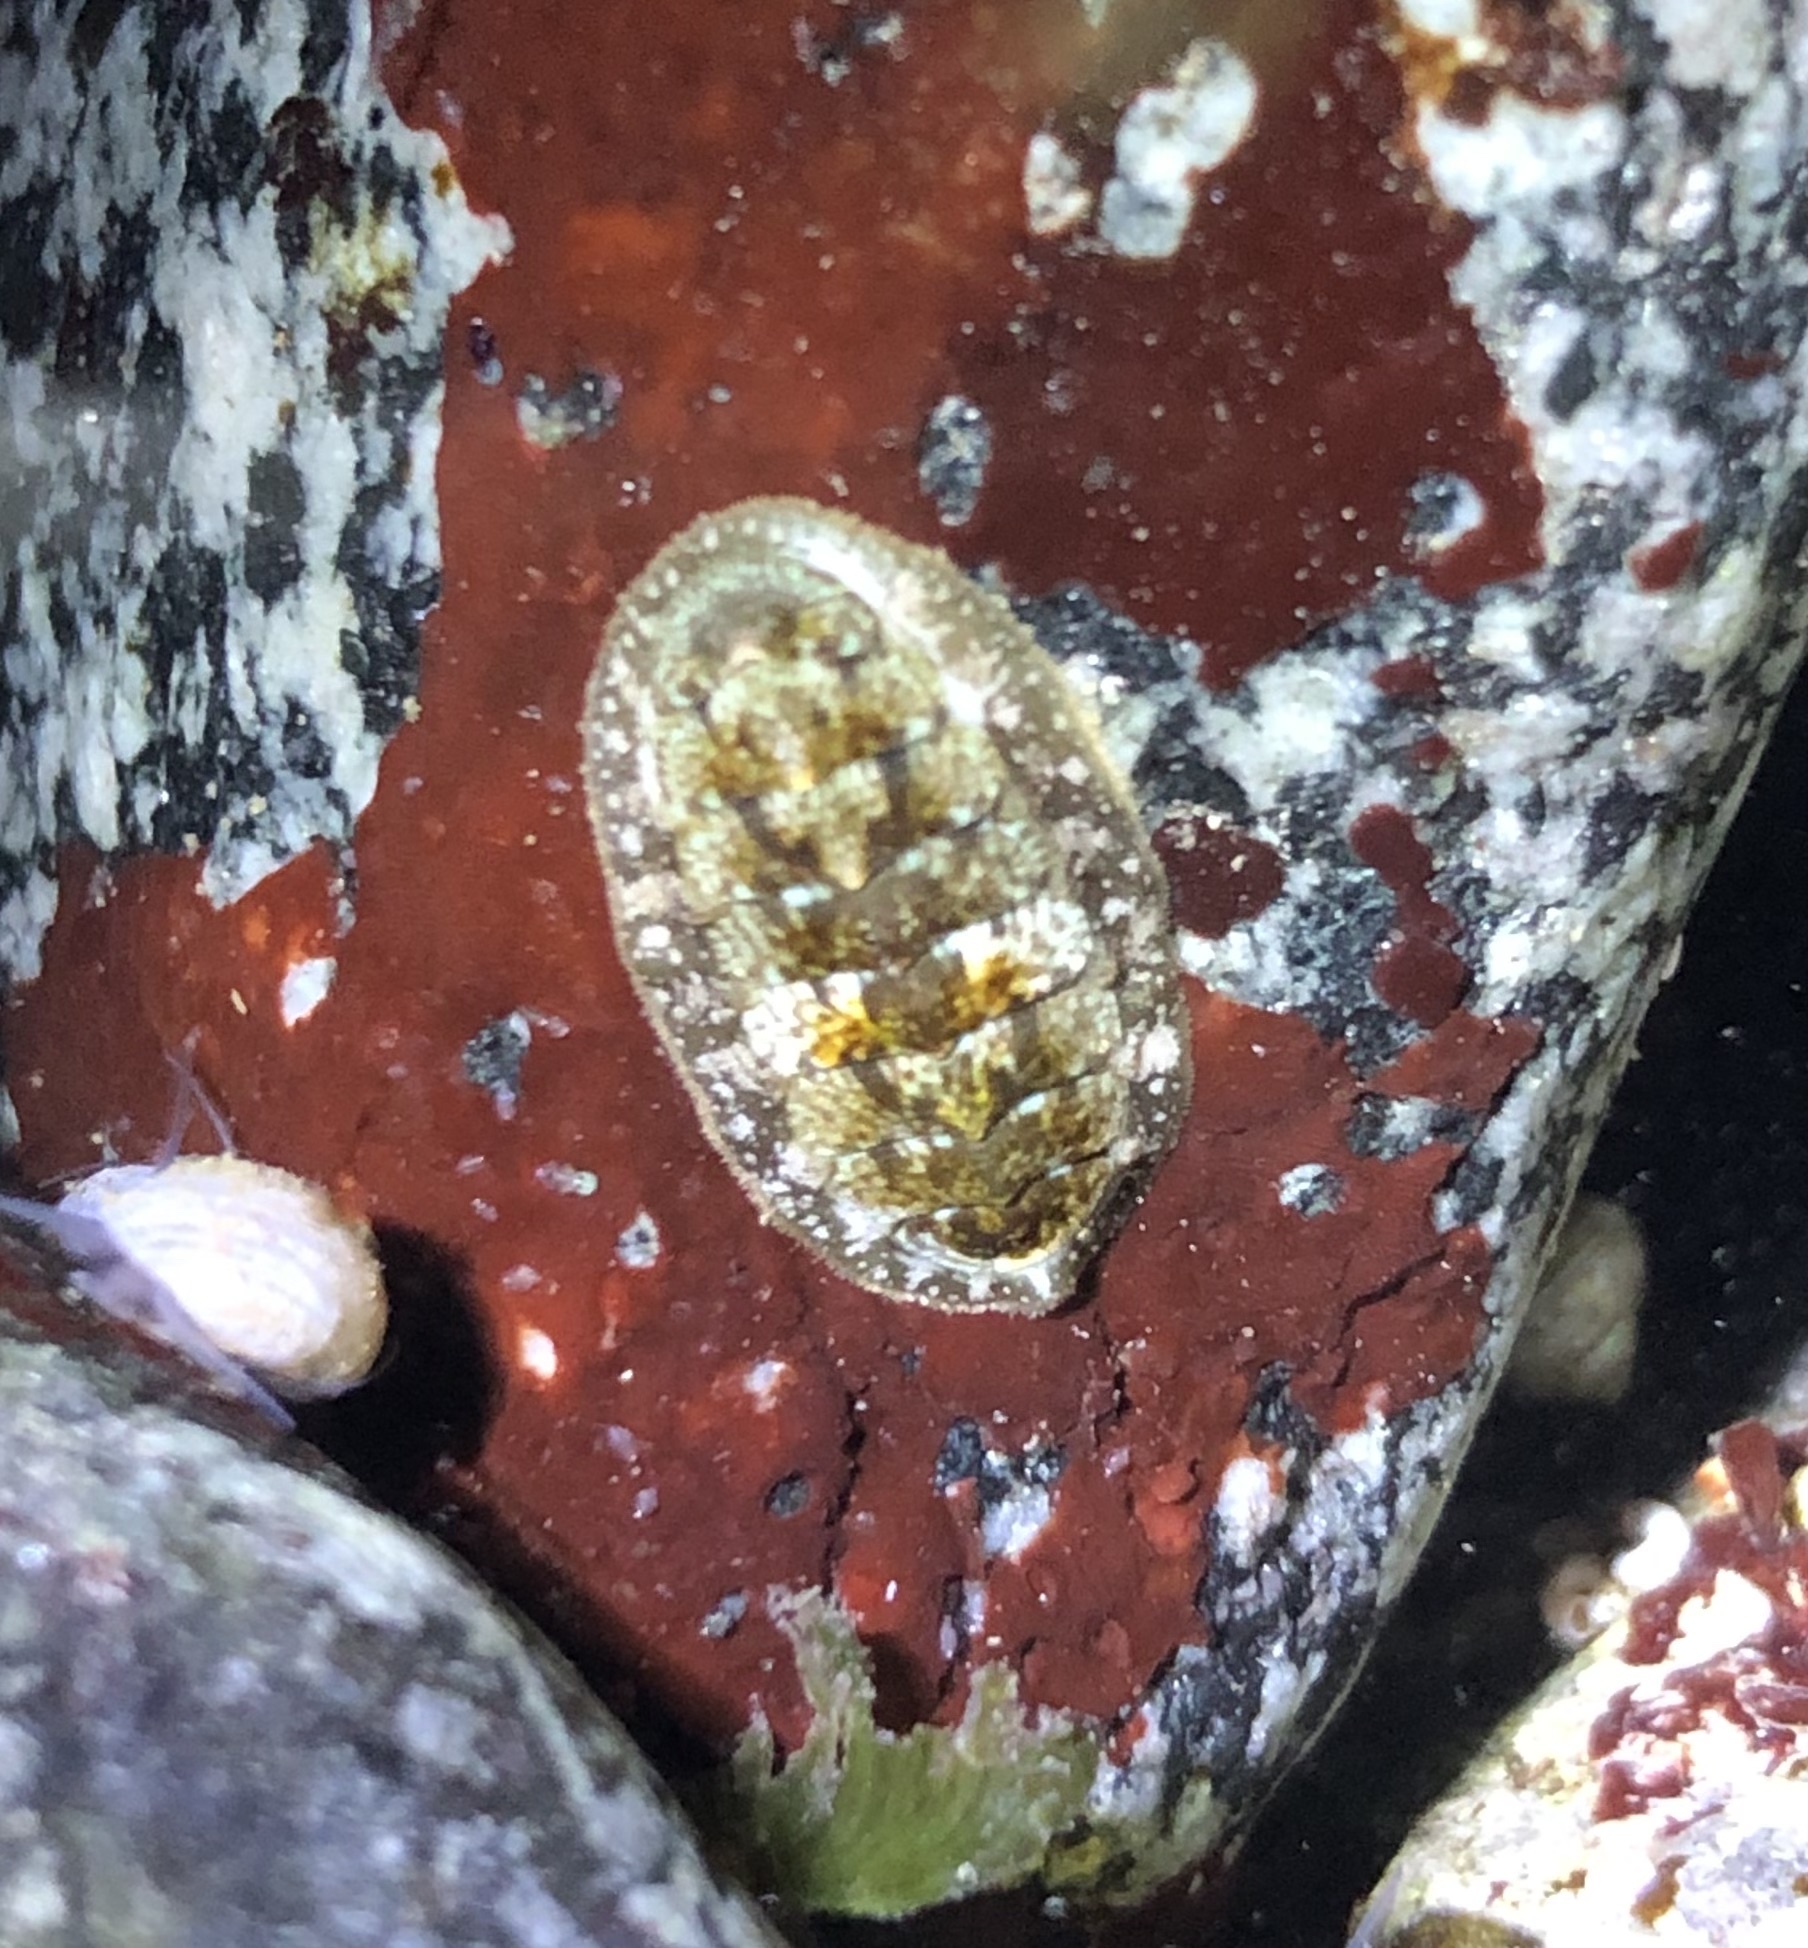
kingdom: Animalia
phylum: Mollusca
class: Polyplacophora
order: Chitonida
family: Tonicellidae
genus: Cyanoplax
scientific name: Cyanoplax dentiens
